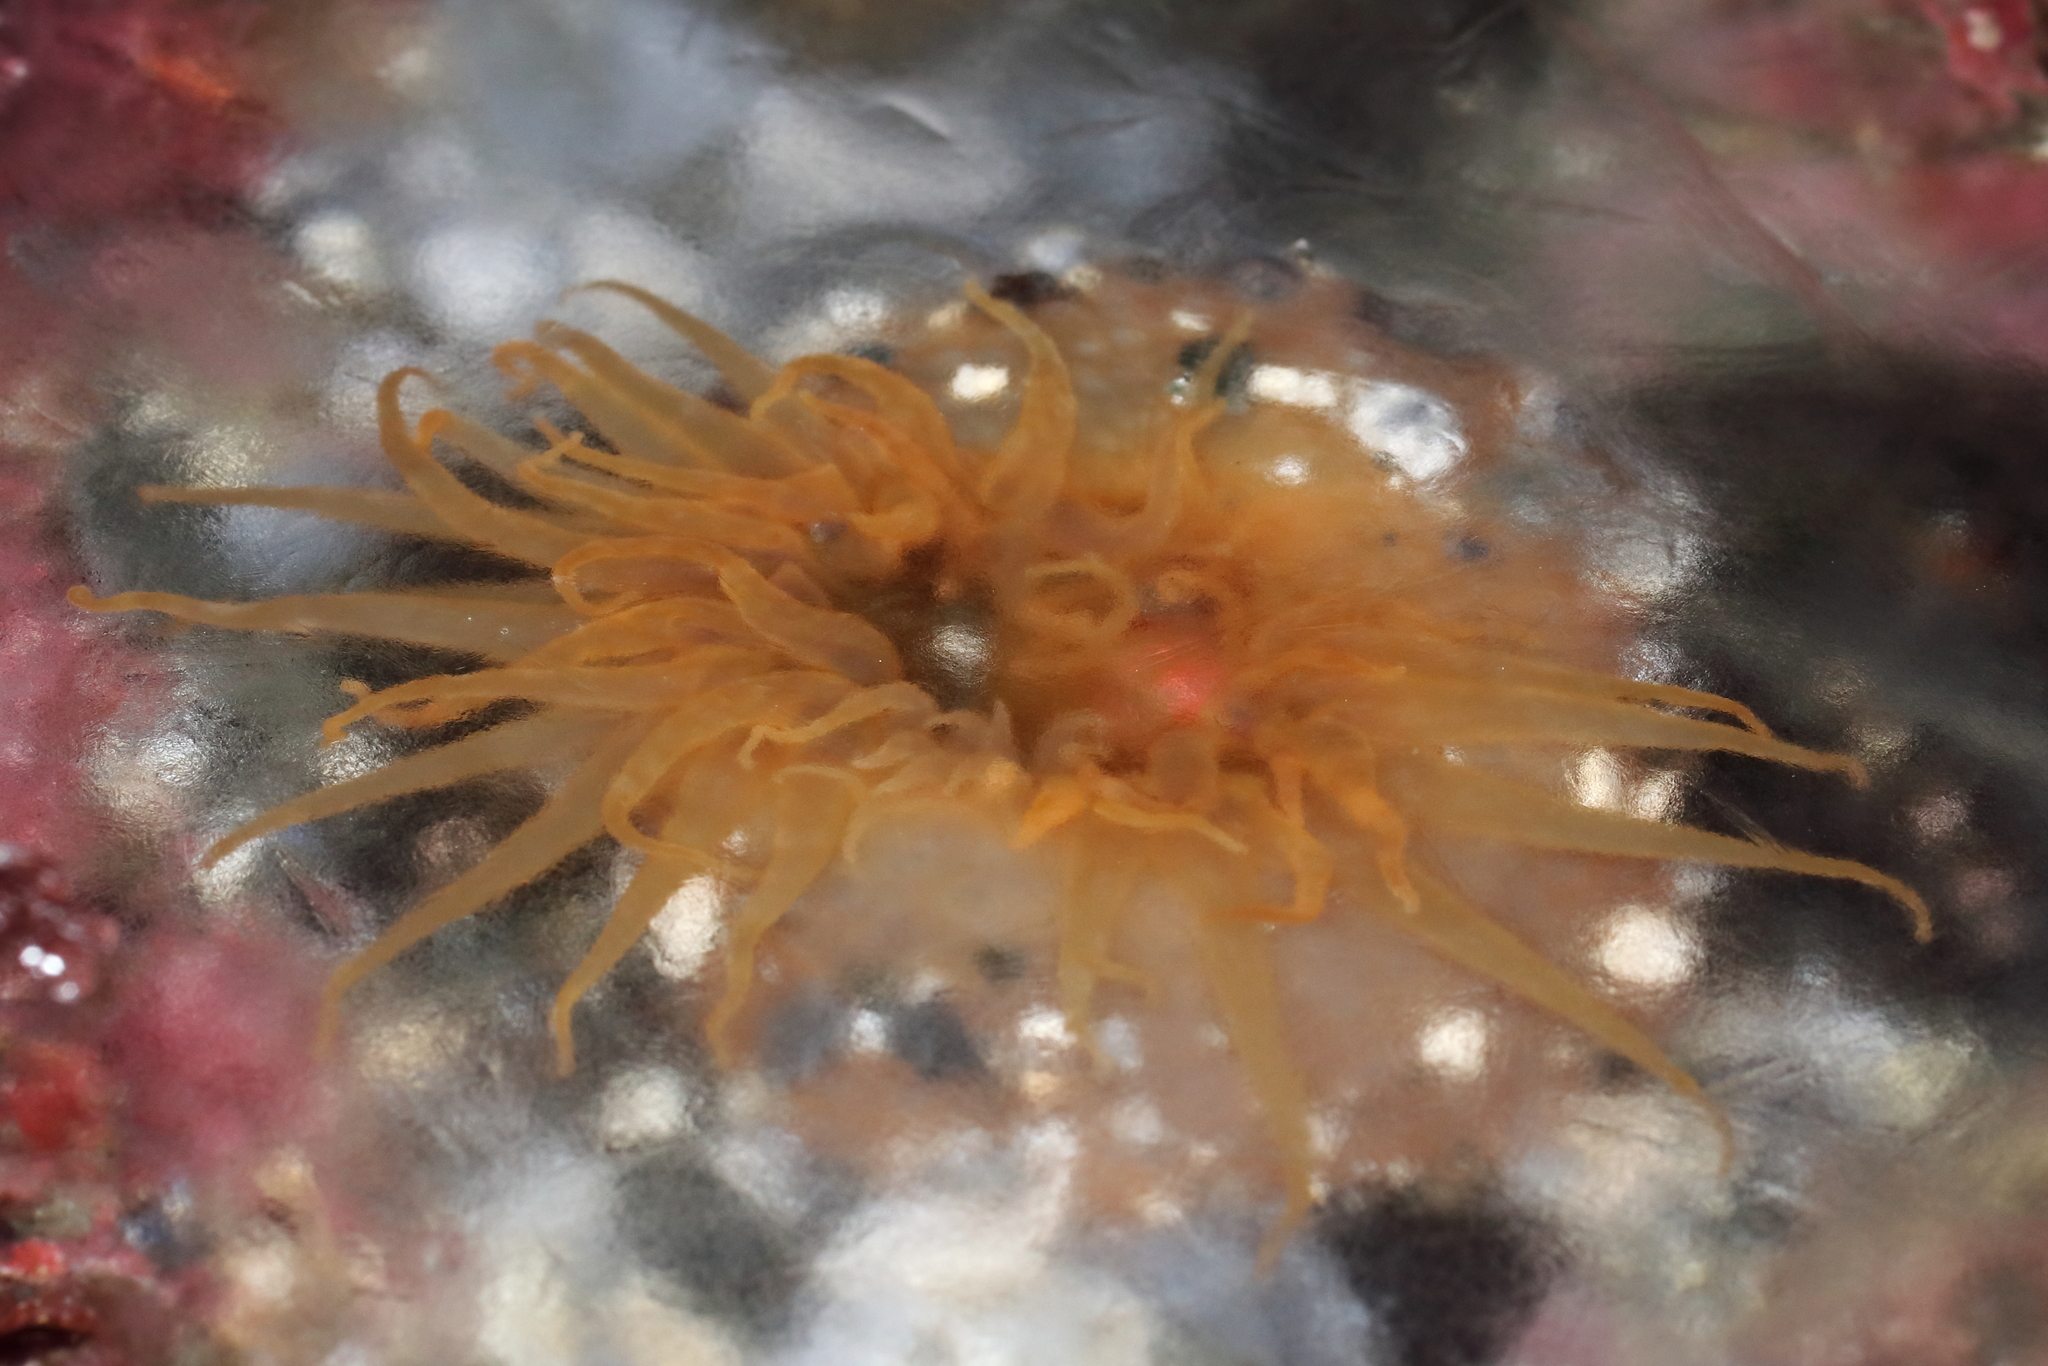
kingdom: Animalia
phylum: Cnidaria
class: Anthozoa
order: Actiniaria
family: Actiniidae
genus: Anthopleura
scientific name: Anthopleura artemisia
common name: Buried sea anemone
